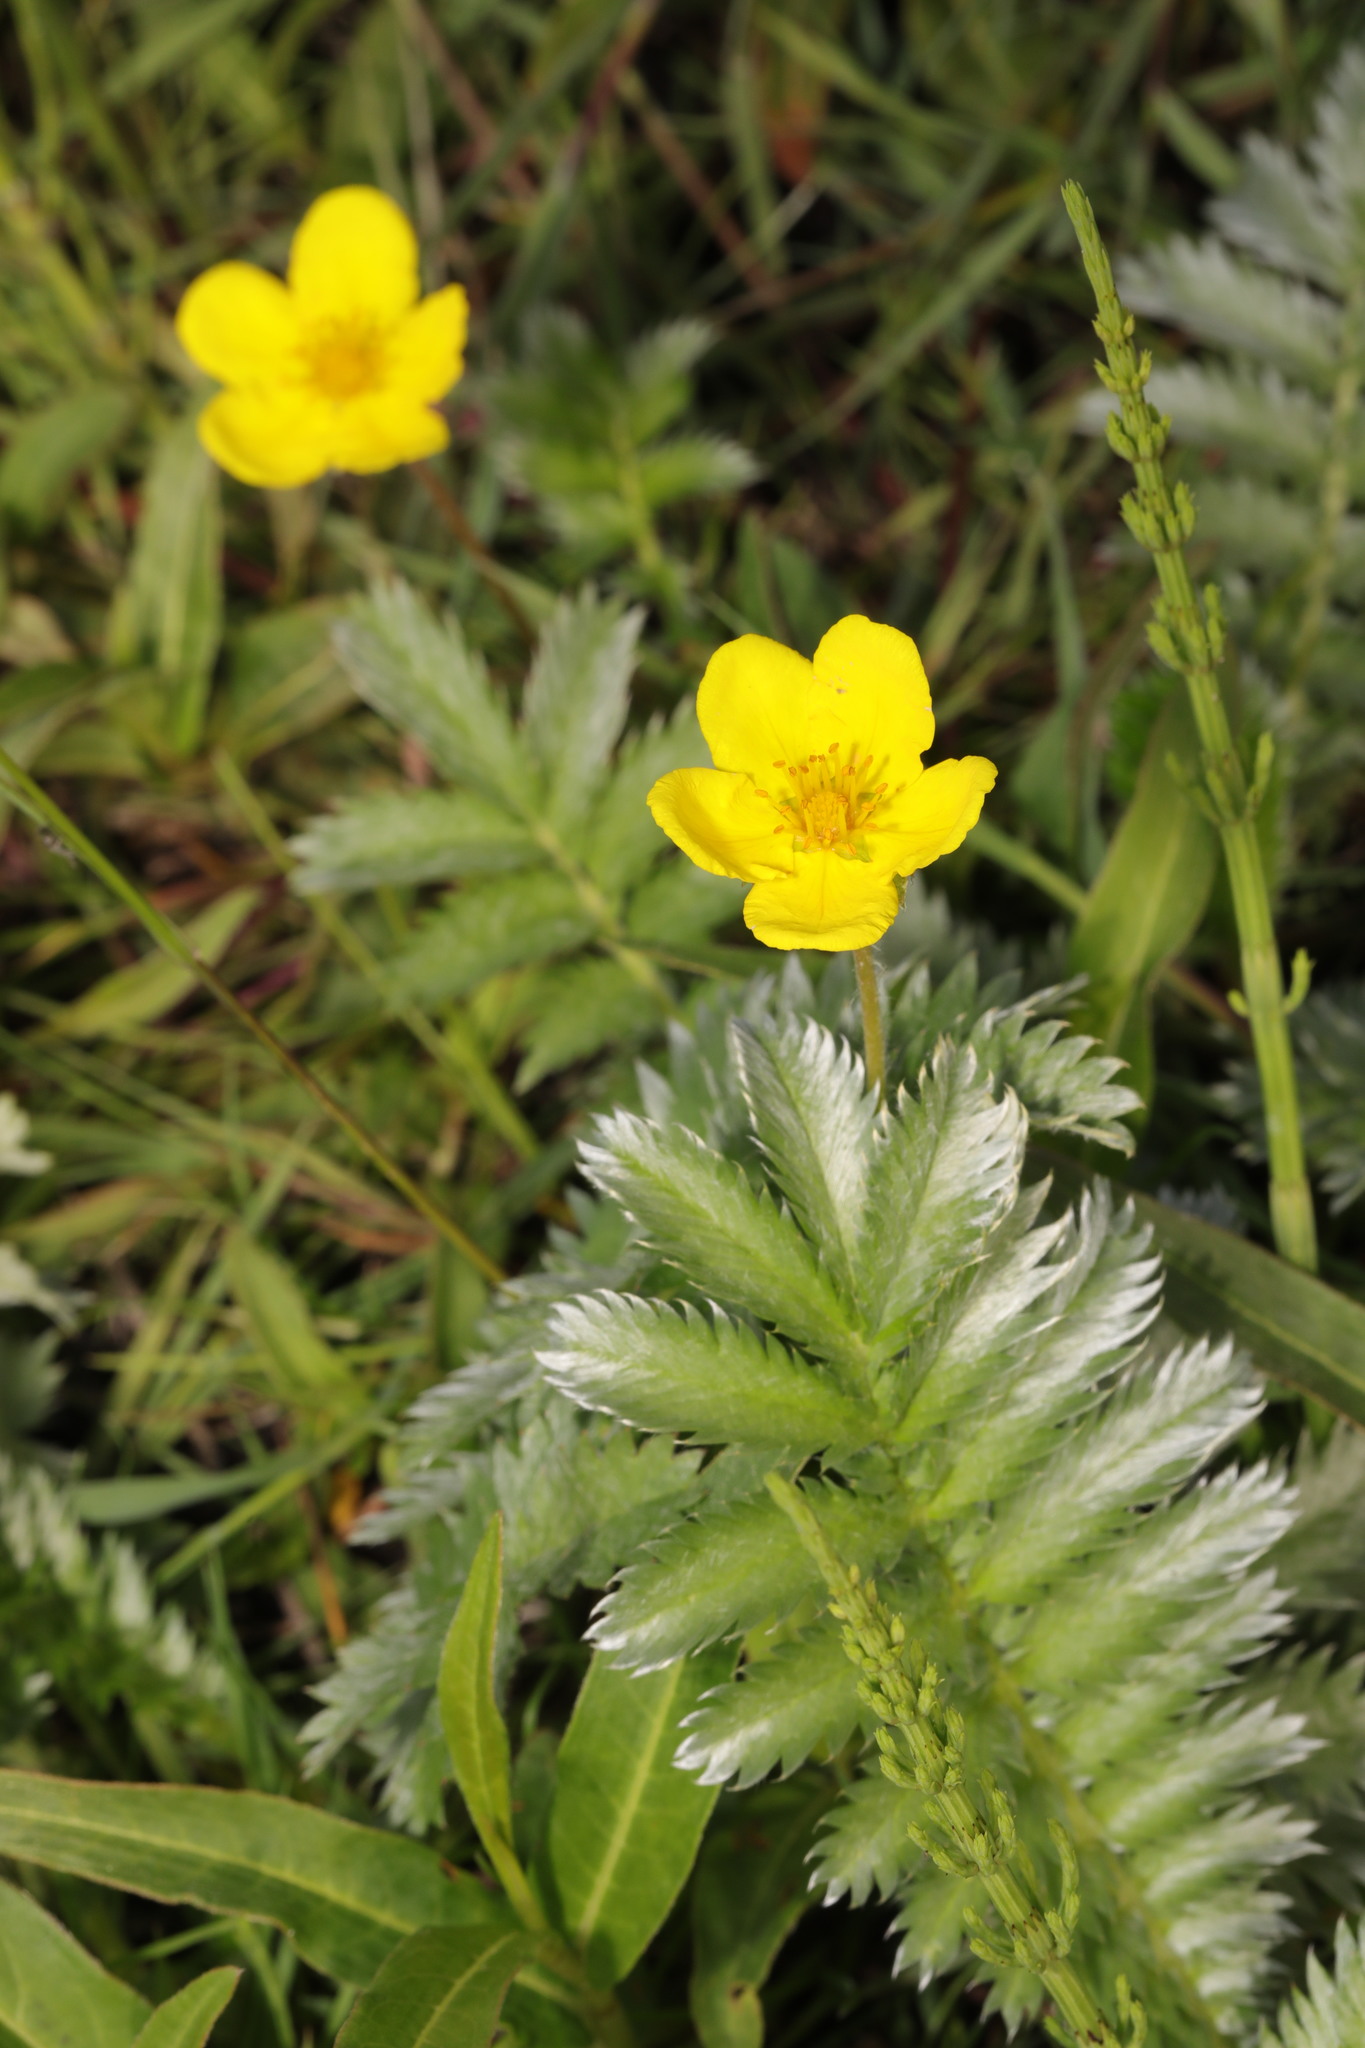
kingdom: Plantae
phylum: Tracheophyta
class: Magnoliopsida
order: Rosales
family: Rosaceae
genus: Argentina
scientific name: Argentina anserina
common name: Common silverweed
